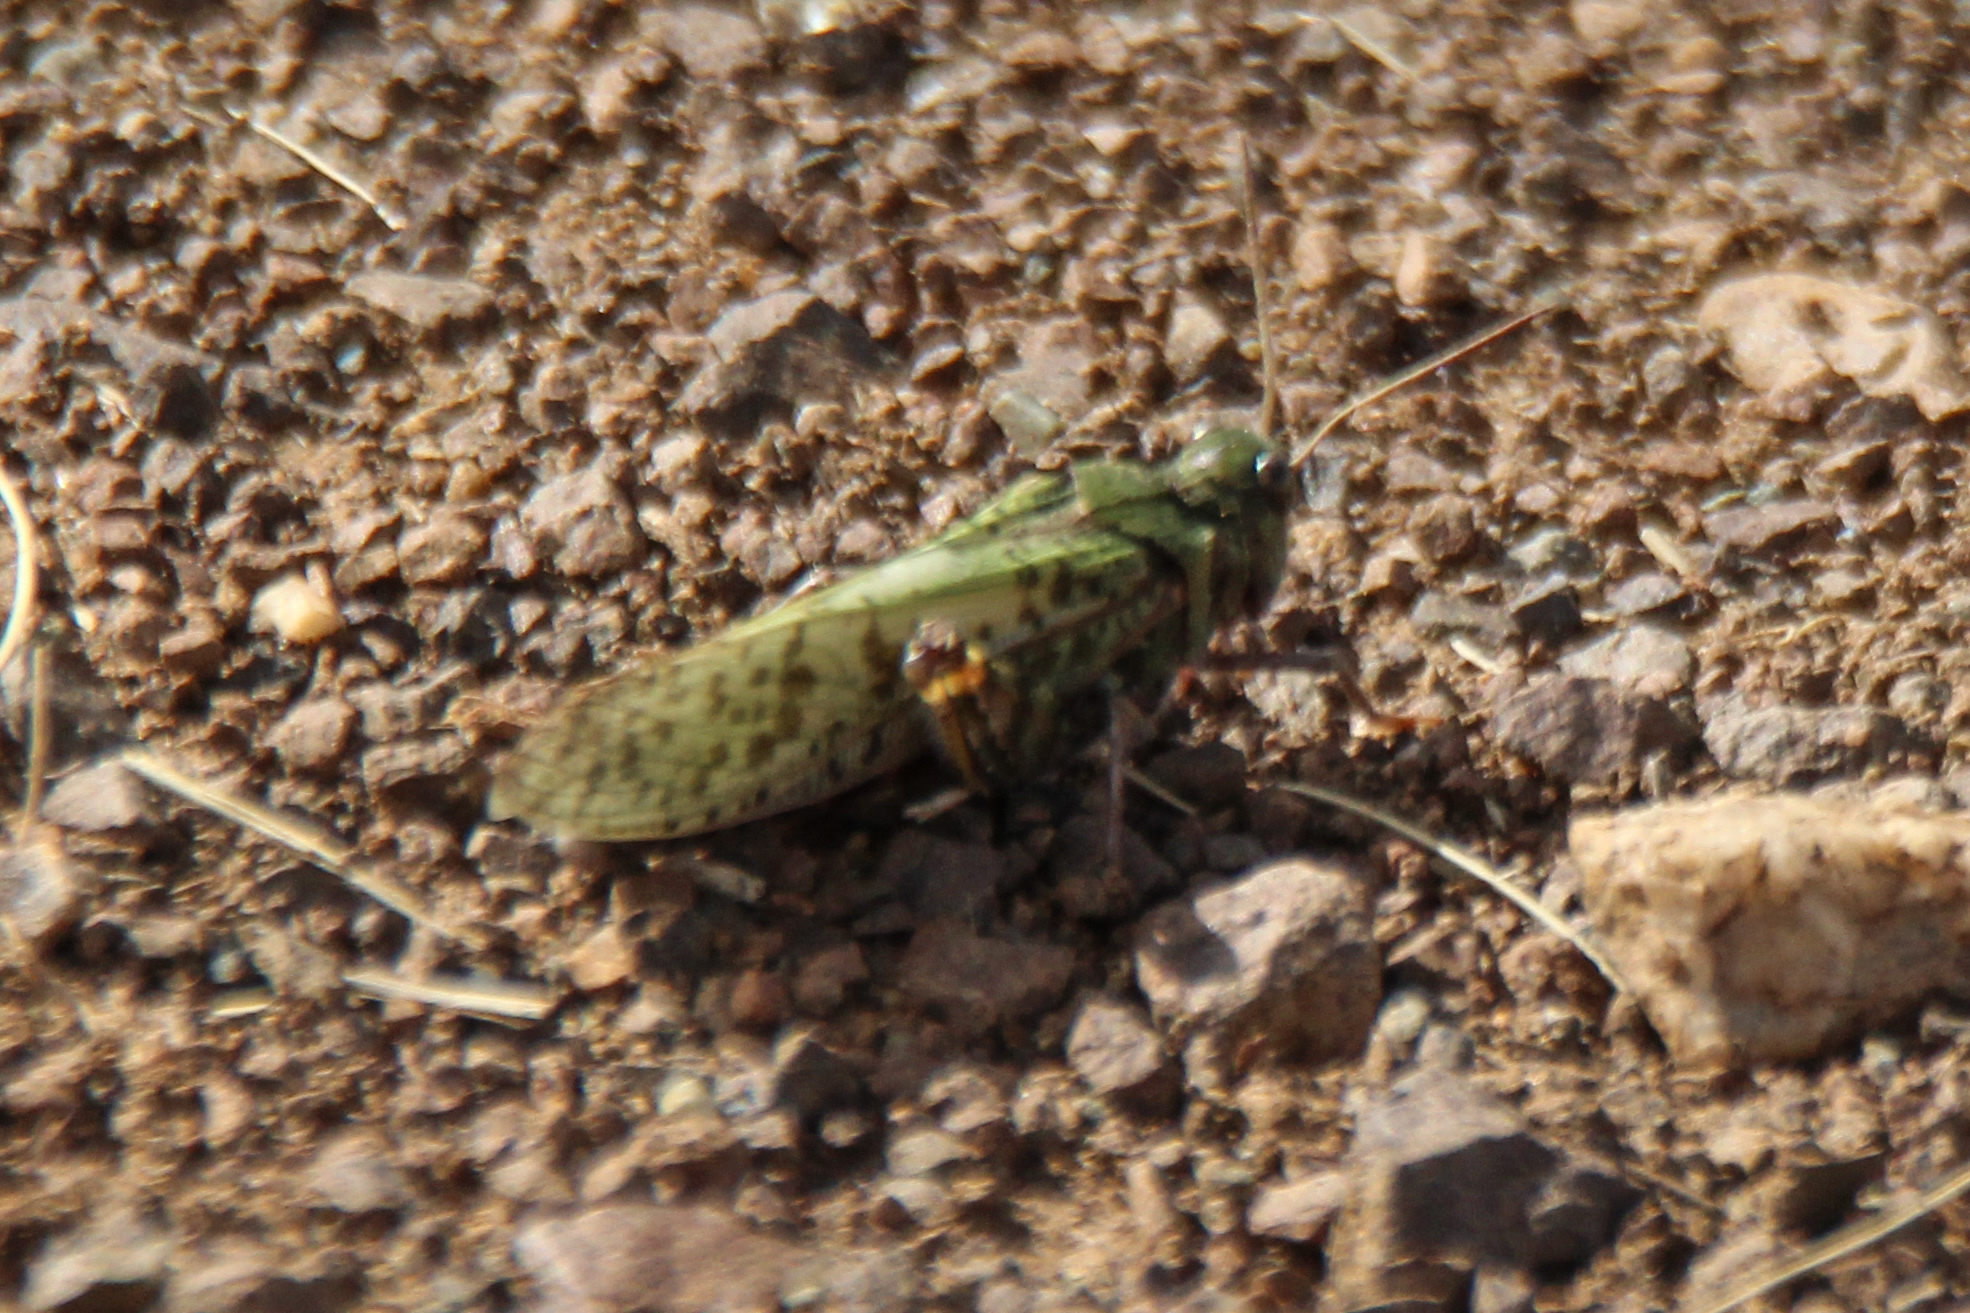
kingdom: Animalia
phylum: Arthropoda
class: Insecta
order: Orthoptera
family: Acrididae
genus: Angaracris
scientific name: Angaracris barabensis
